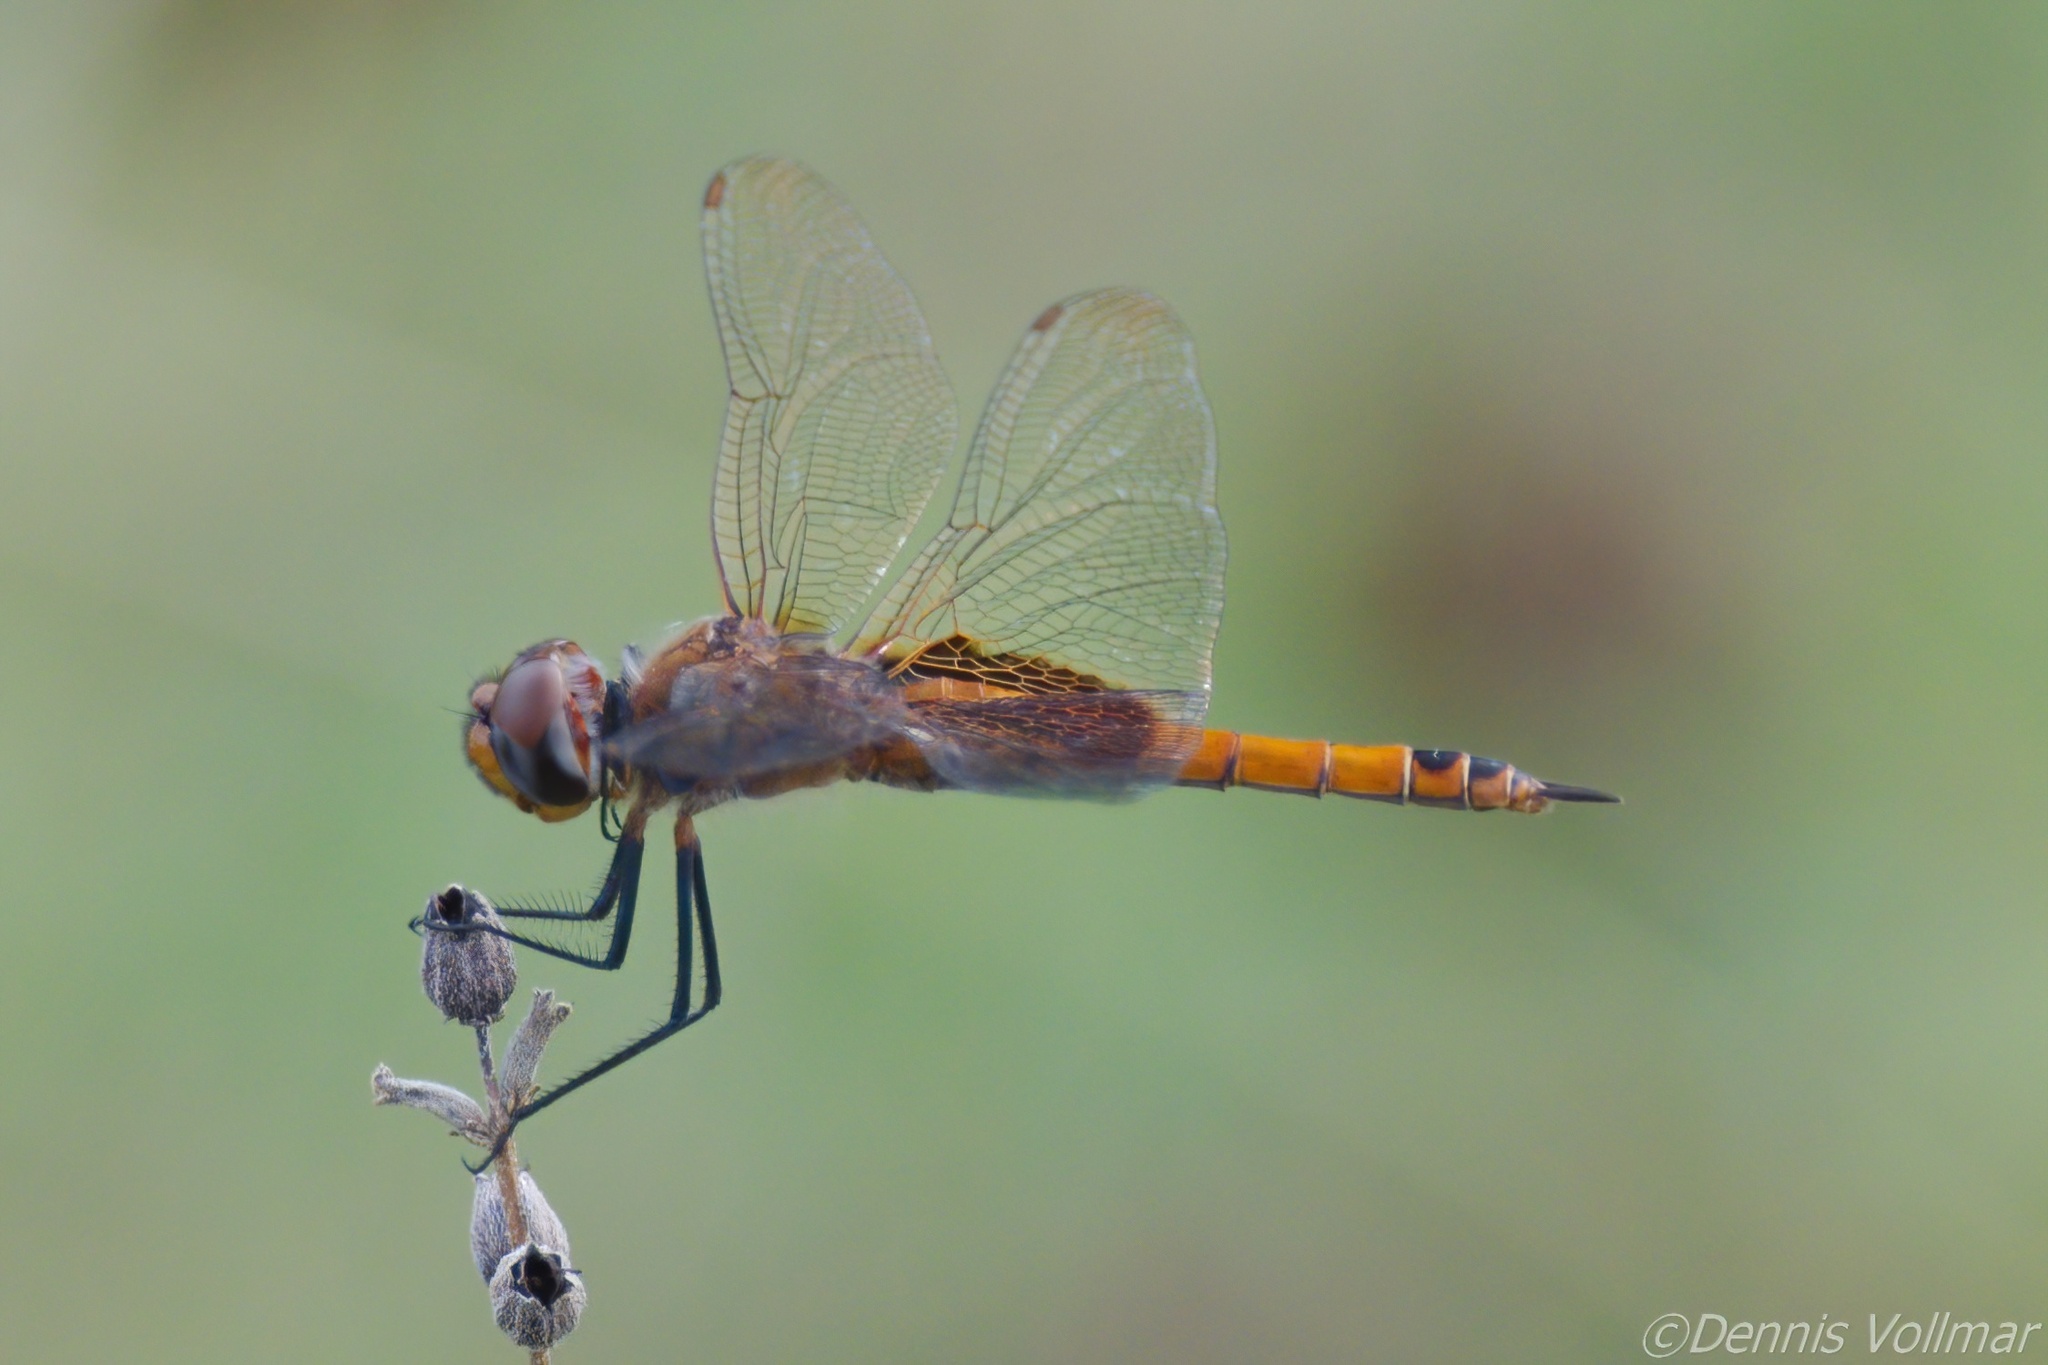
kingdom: Animalia
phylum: Arthropoda
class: Insecta
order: Odonata
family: Libellulidae
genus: Tramea
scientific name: Tramea insularis
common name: Antillean saddlebags
